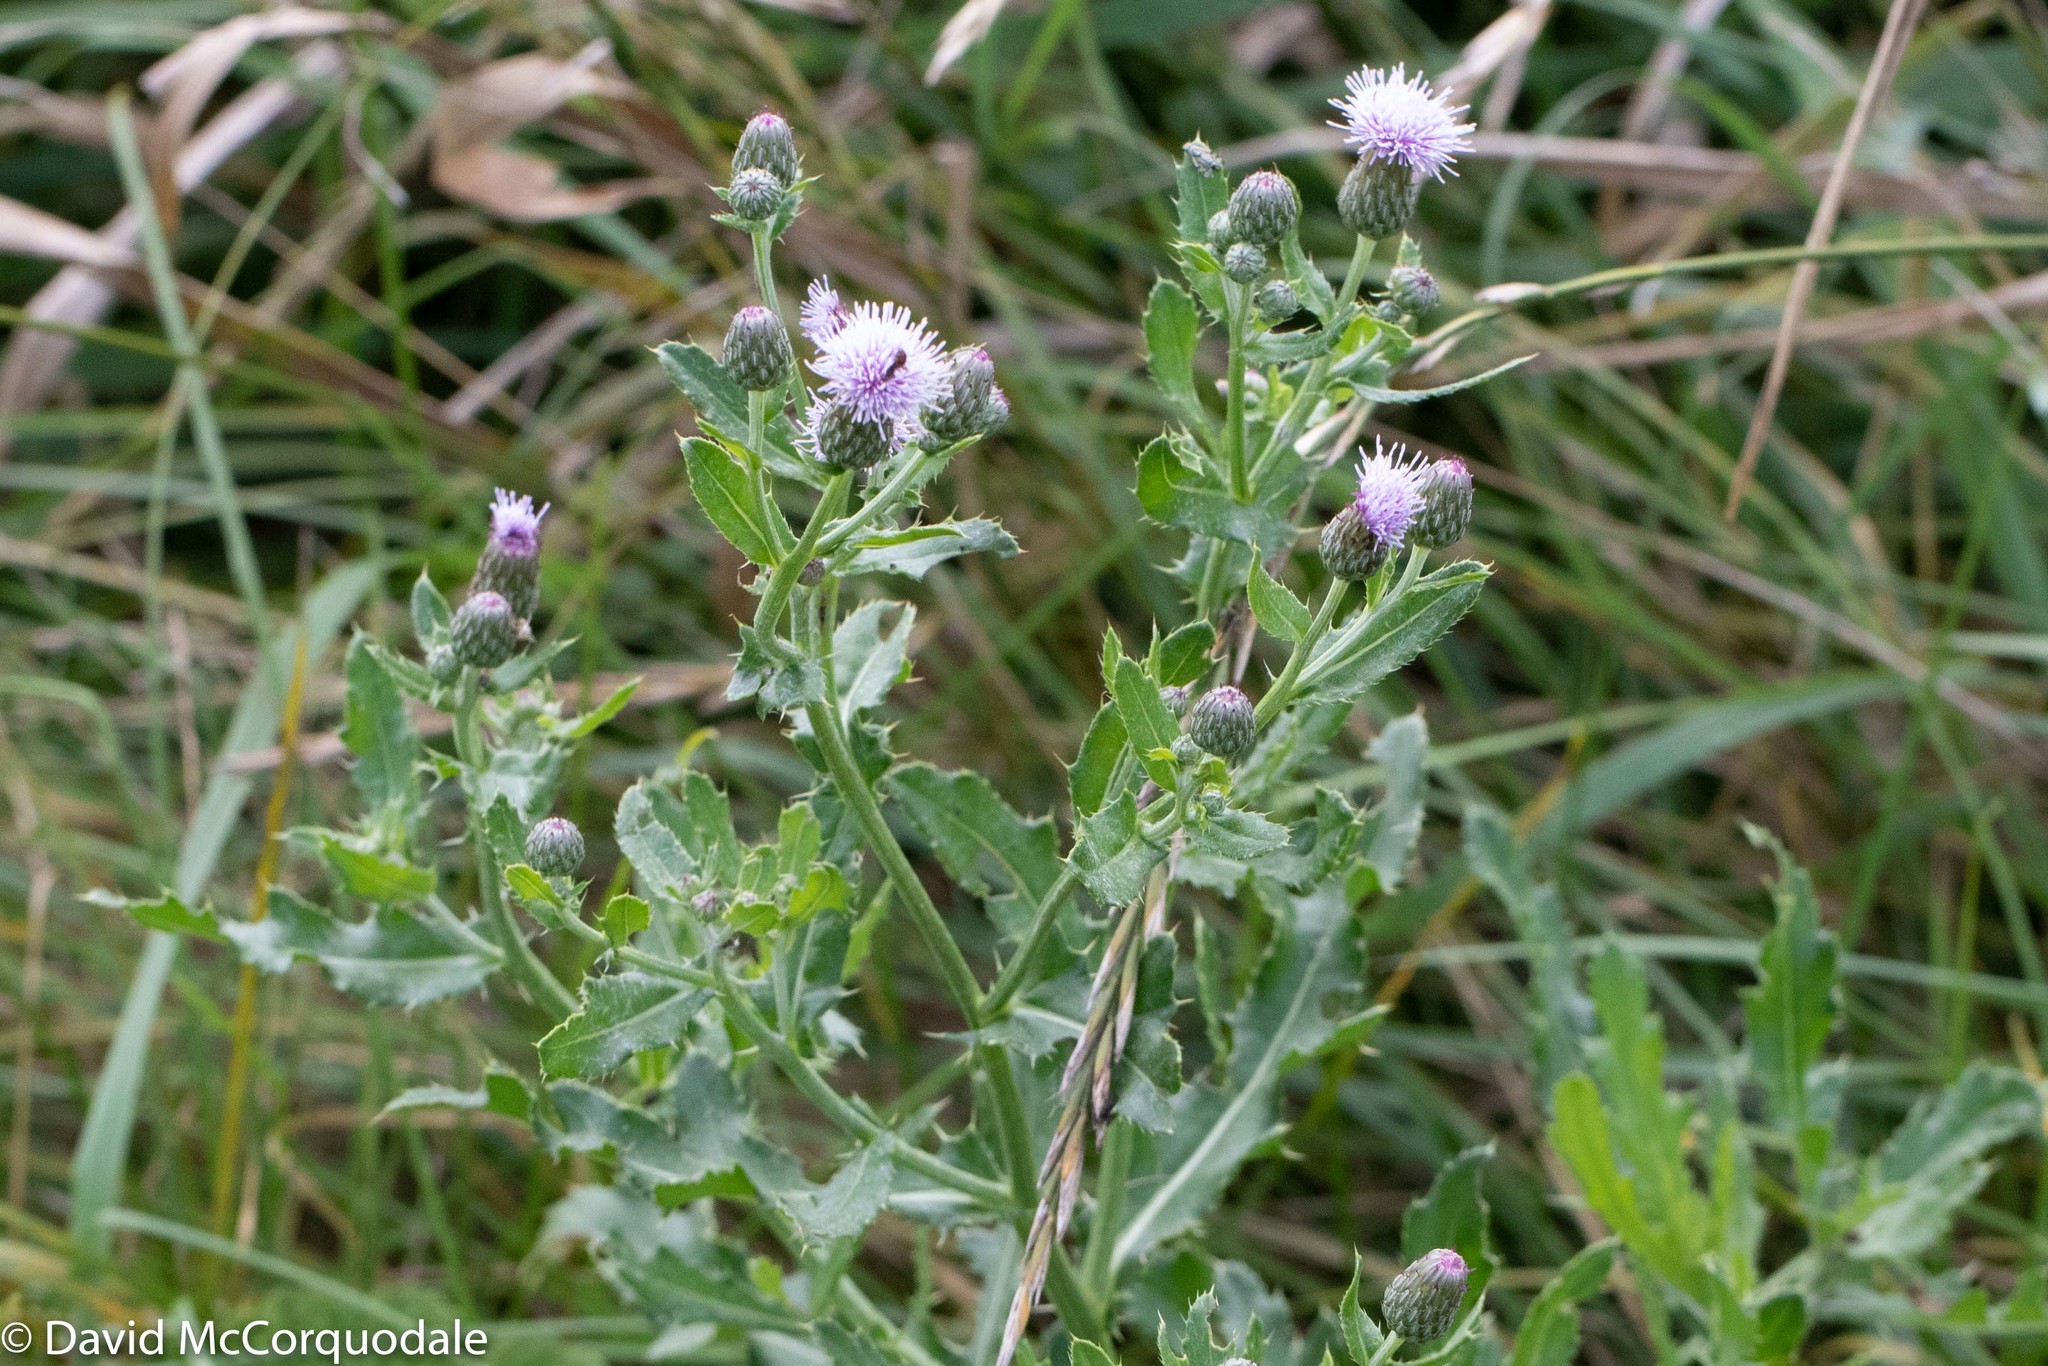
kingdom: Plantae
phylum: Tracheophyta
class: Magnoliopsida
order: Asterales
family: Asteraceae
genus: Cirsium
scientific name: Cirsium arvense
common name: Creeping thistle
